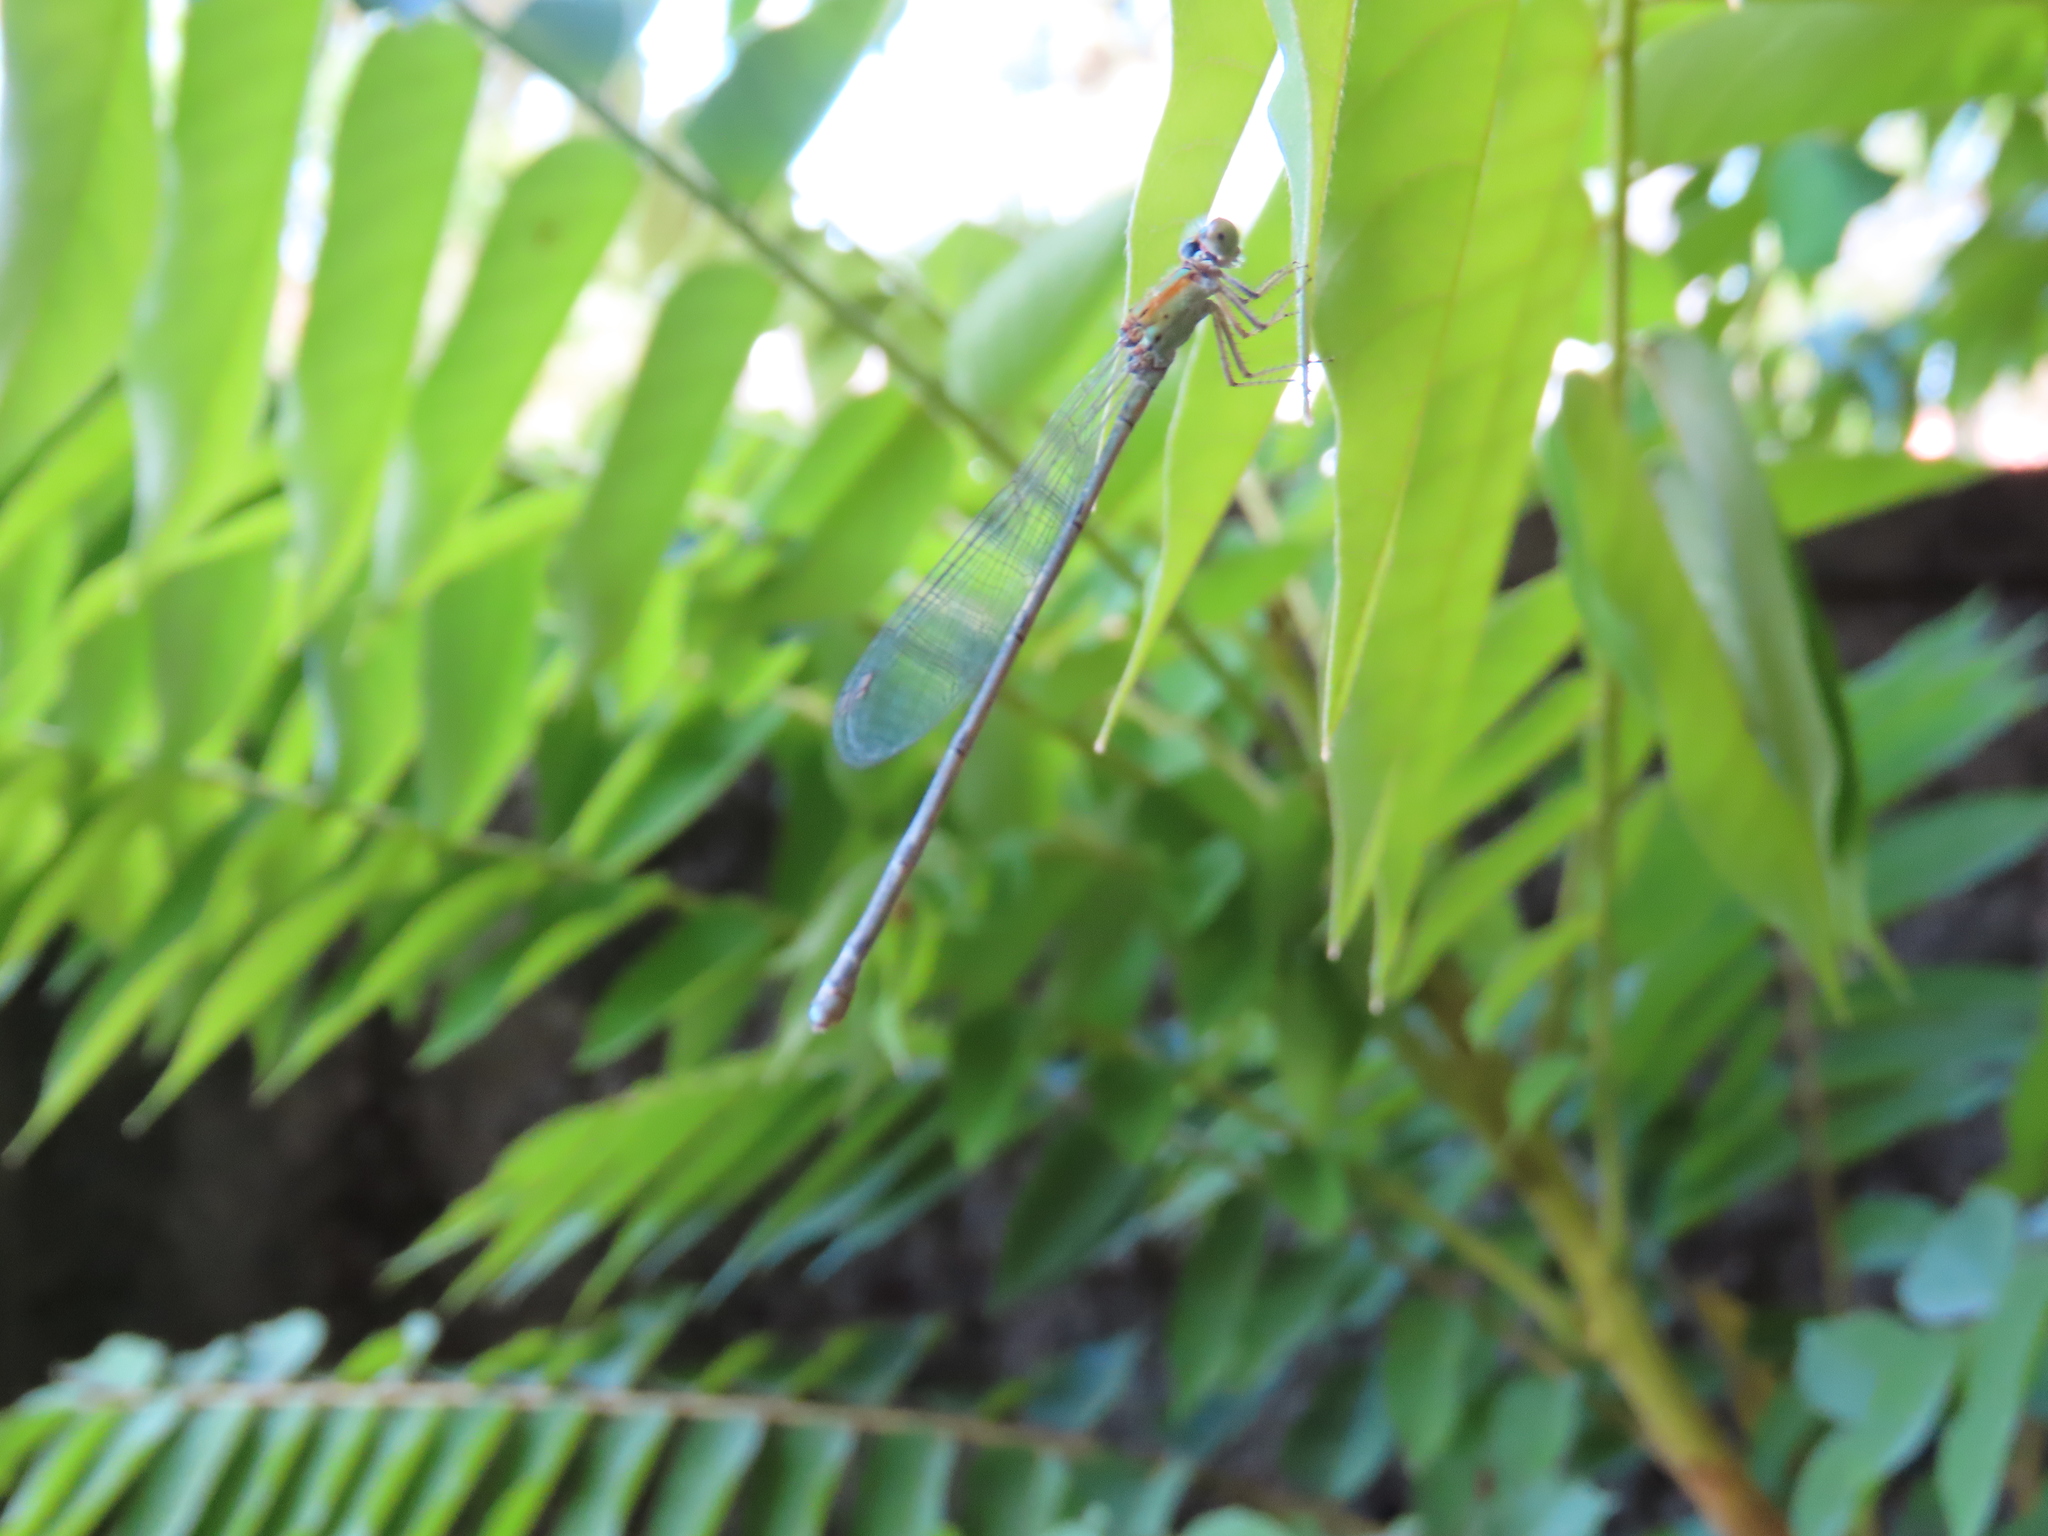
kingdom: Animalia
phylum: Arthropoda
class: Insecta
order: Odonata
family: Coenagrionidae
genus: Pseudagrion
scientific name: Pseudagrion microcephalum
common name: Blue riverdamsel
